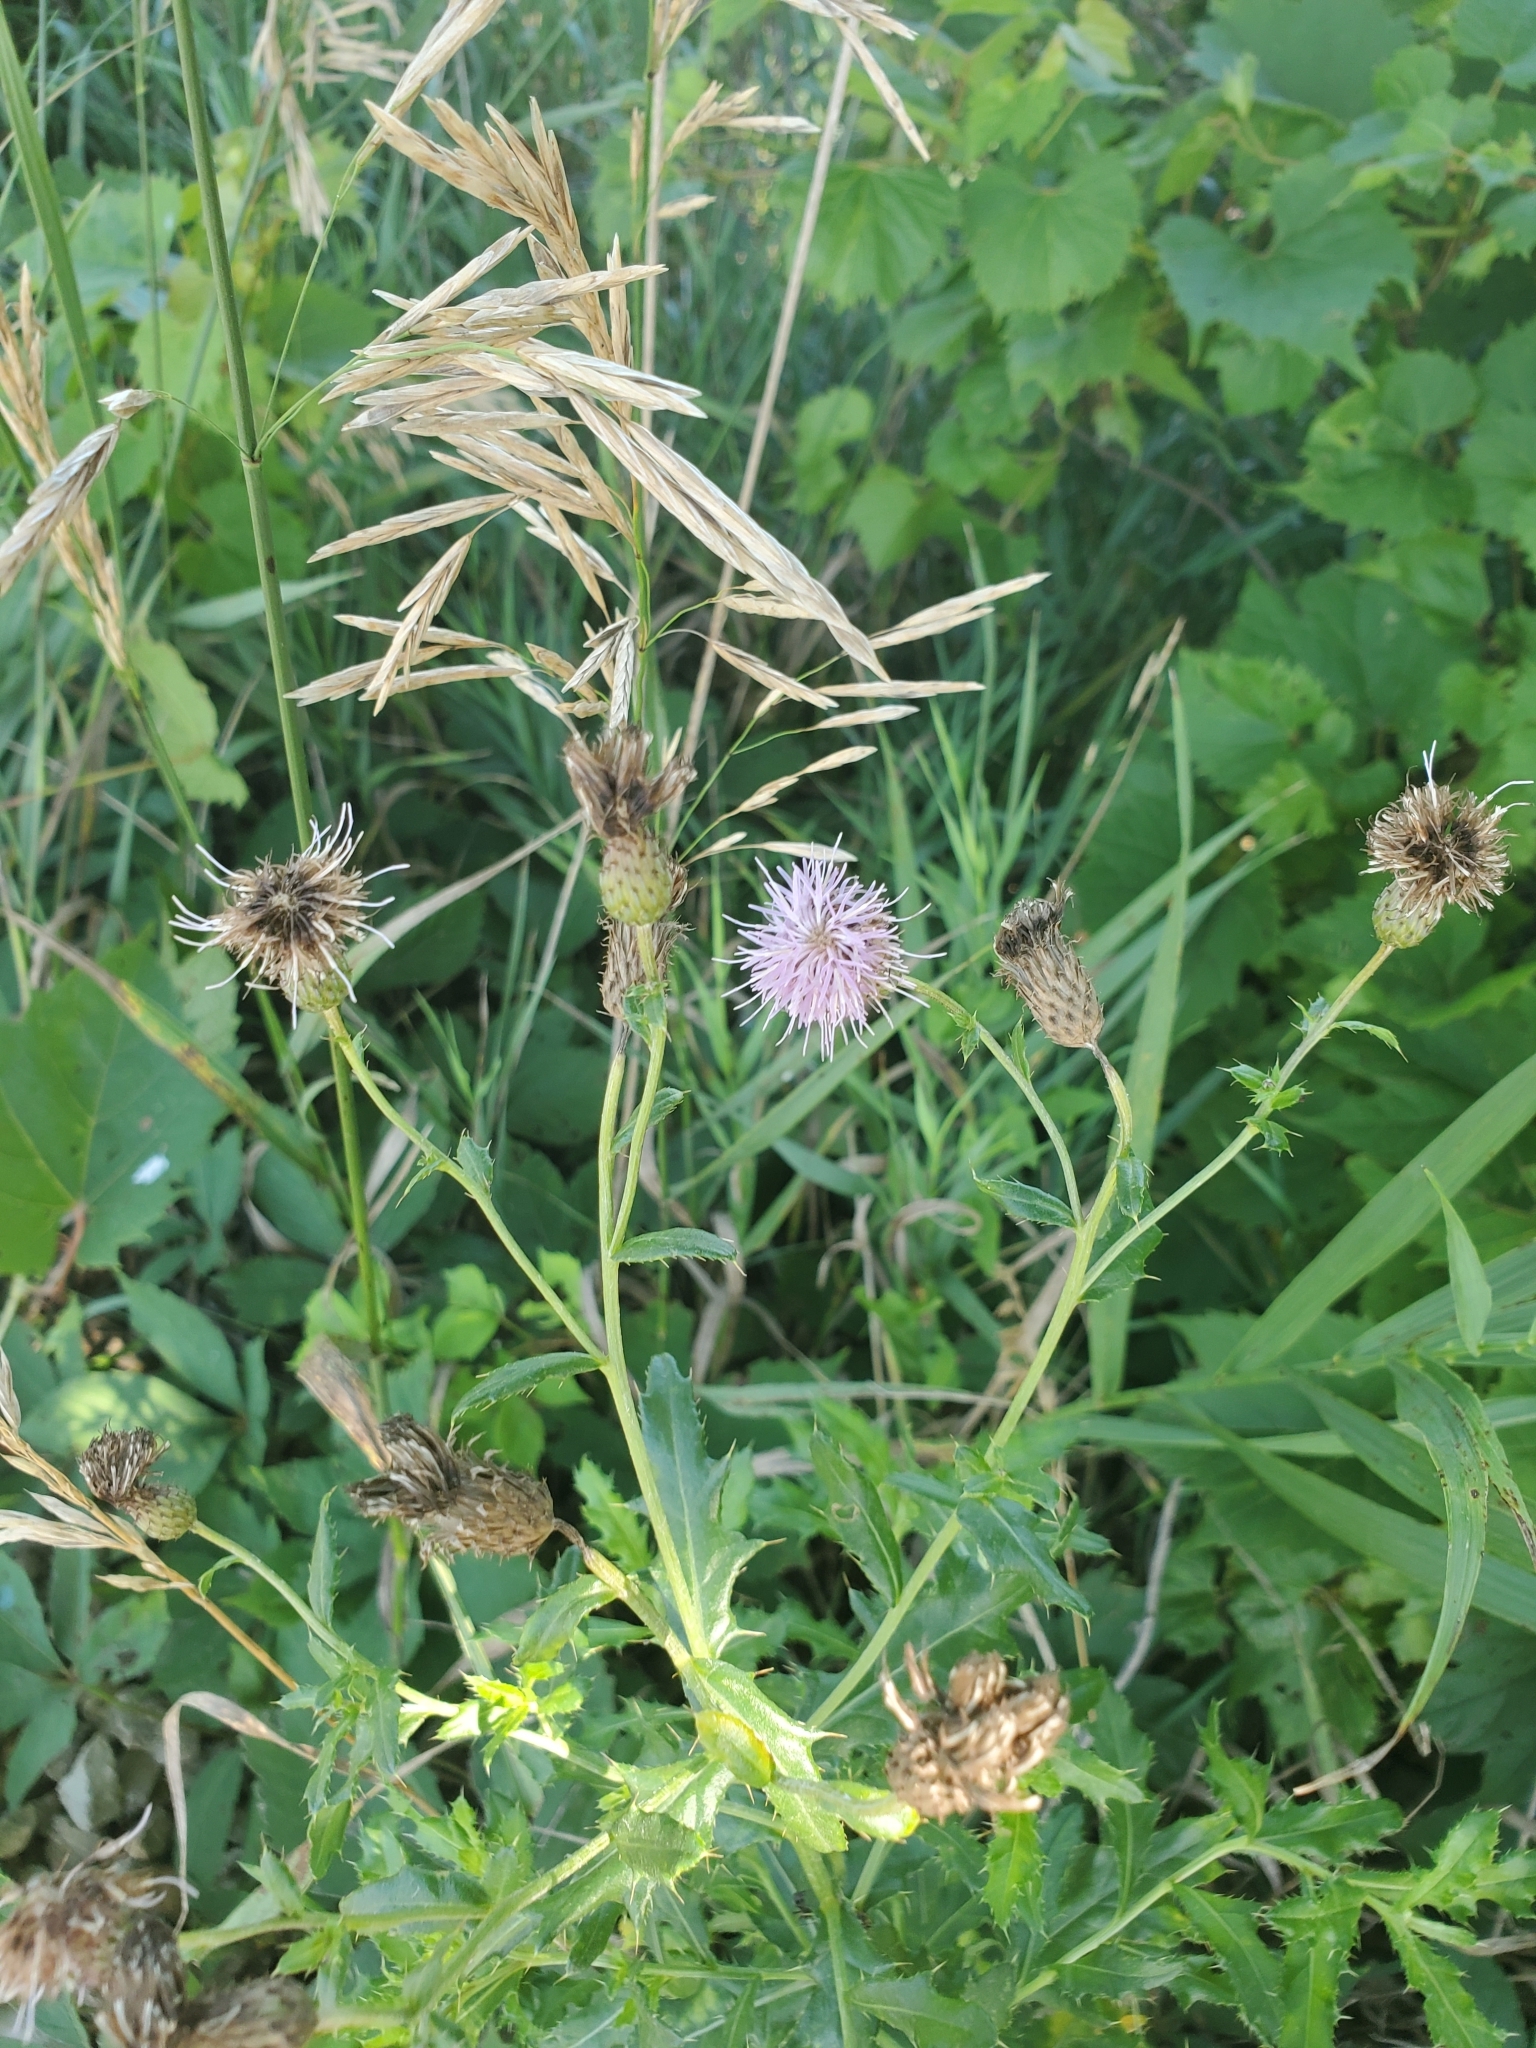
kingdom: Plantae
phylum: Tracheophyta
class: Magnoliopsida
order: Asterales
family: Asteraceae
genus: Cirsium
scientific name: Cirsium arvense
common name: Creeping thistle
